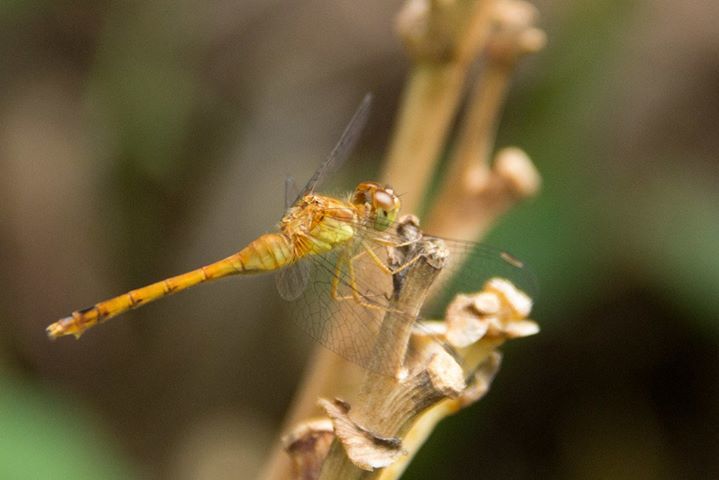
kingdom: Animalia
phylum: Arthropoda
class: Insecta
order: Odonata
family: Libellulidae
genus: Sympetrum
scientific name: Sympetrum vicinum
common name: Autumn meadowhawk
